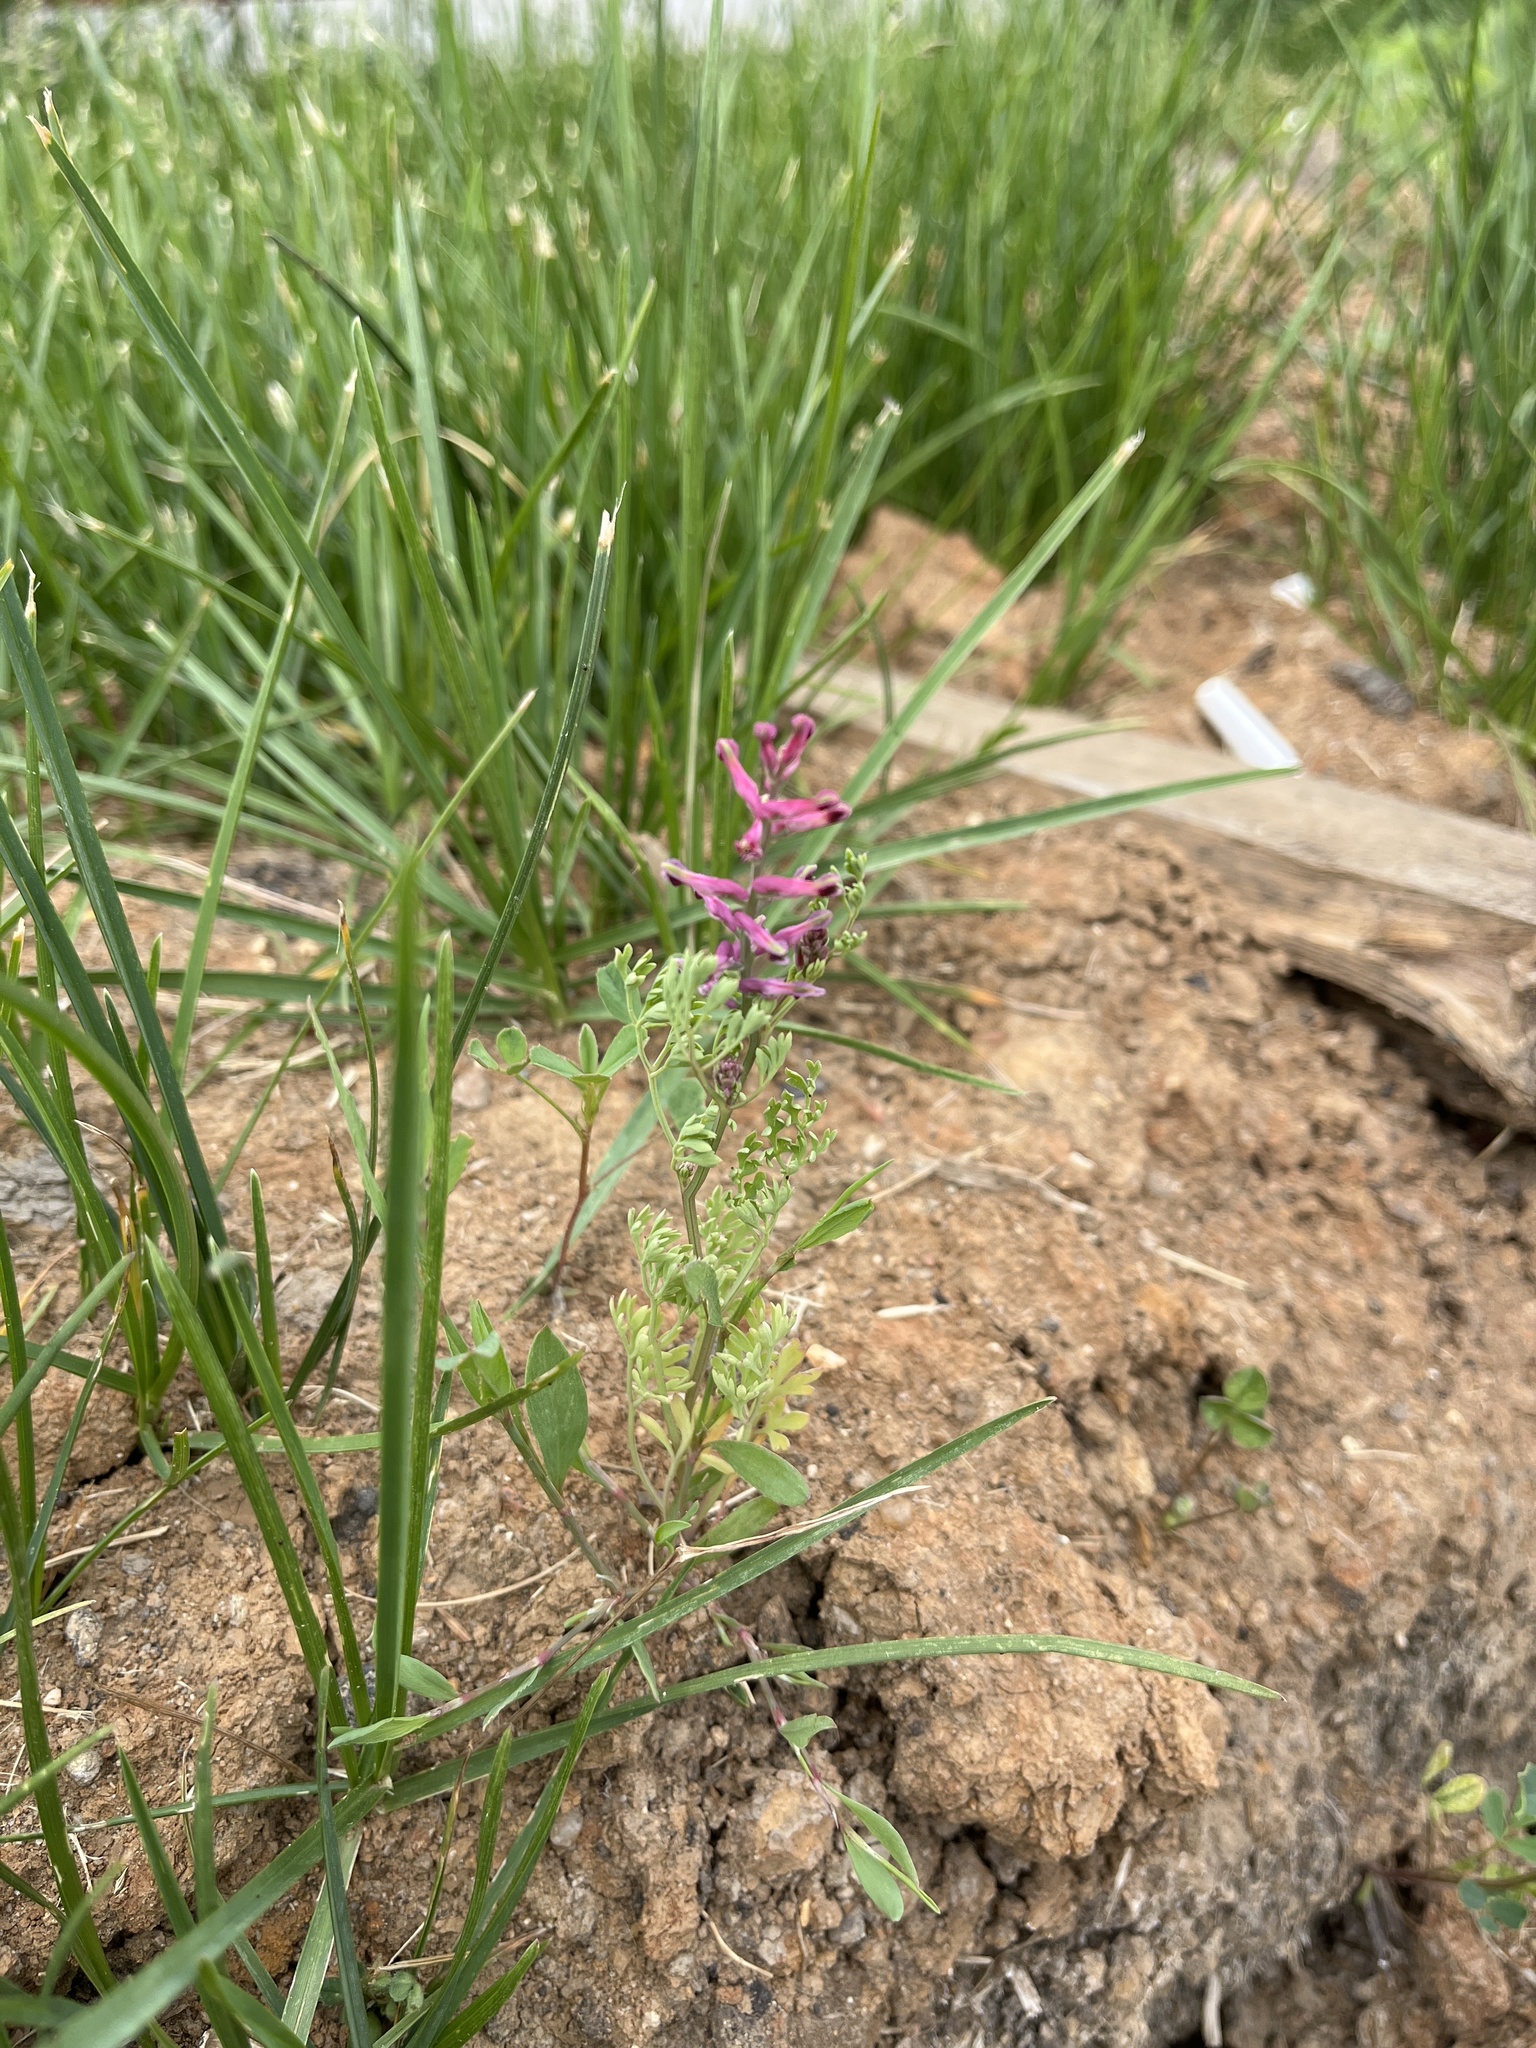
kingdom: Plantae
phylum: Tracheophyta
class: Magnoliopsida
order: Ranunculales
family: Papaveraceae
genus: Fumaria
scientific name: Fumaria officinalis
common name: Common fumitory
